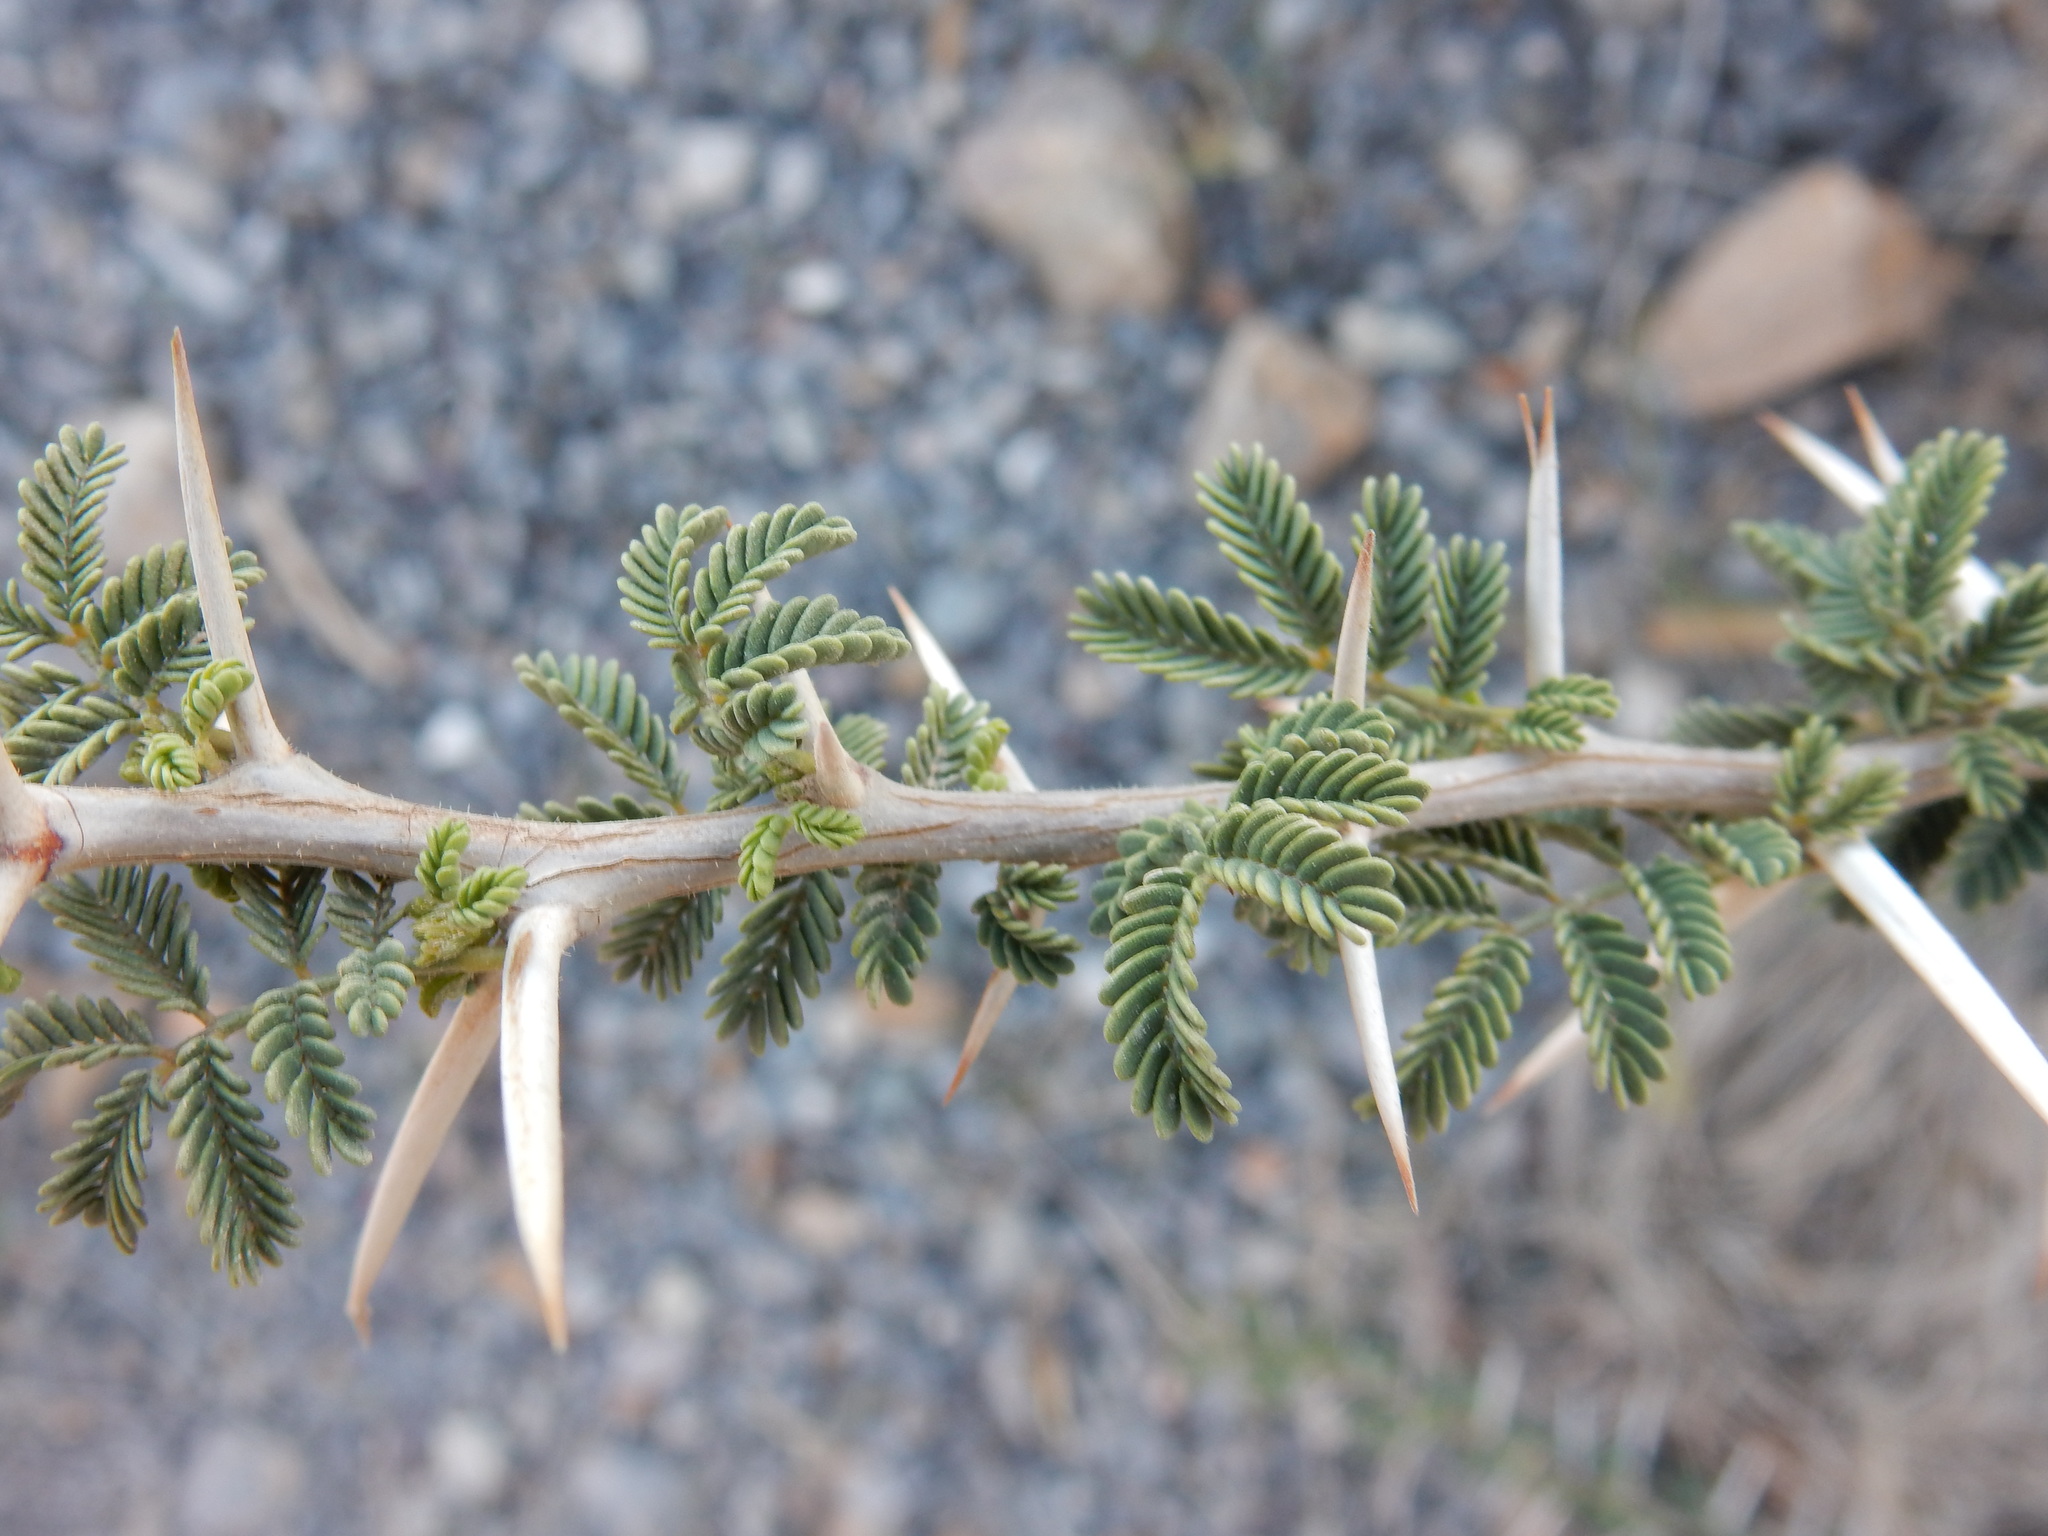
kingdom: Plantae
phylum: Tracheophyta
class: Magnoliopsida
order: Fabales
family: Fabaceae
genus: Vachellia
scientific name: Vachellia tortilis
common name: Umbrella thorn acacia
